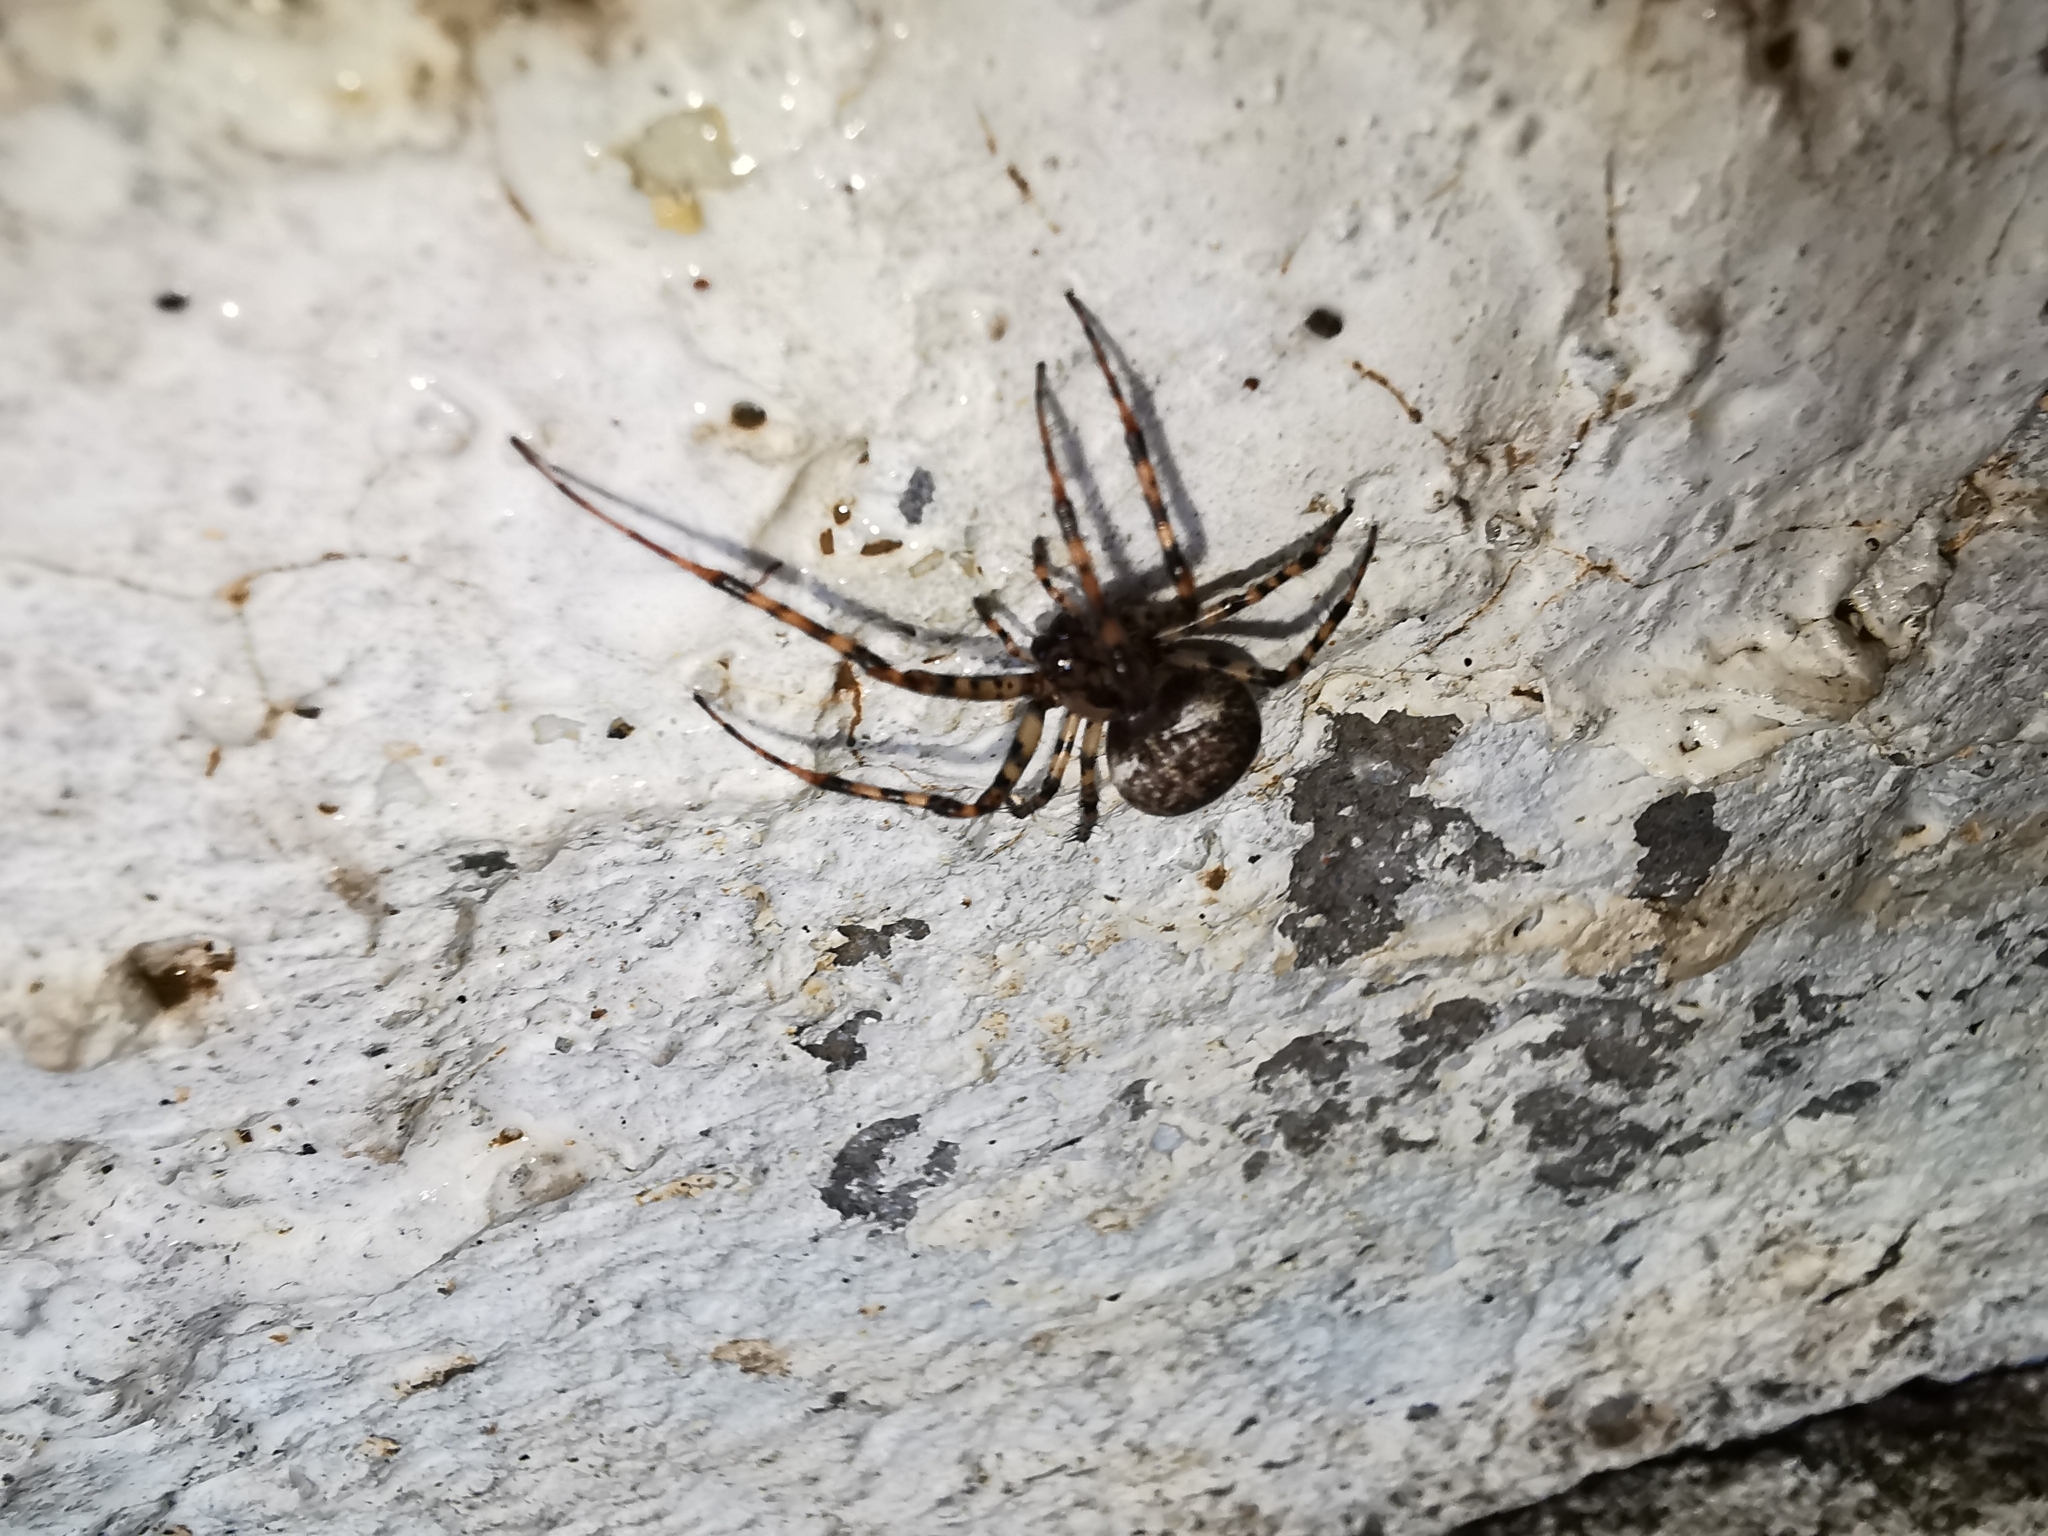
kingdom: Animalia
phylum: Arthropoda
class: Arachnida
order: Araneae
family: Tetragnathidae
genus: Metellina
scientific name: Metellina merianae
